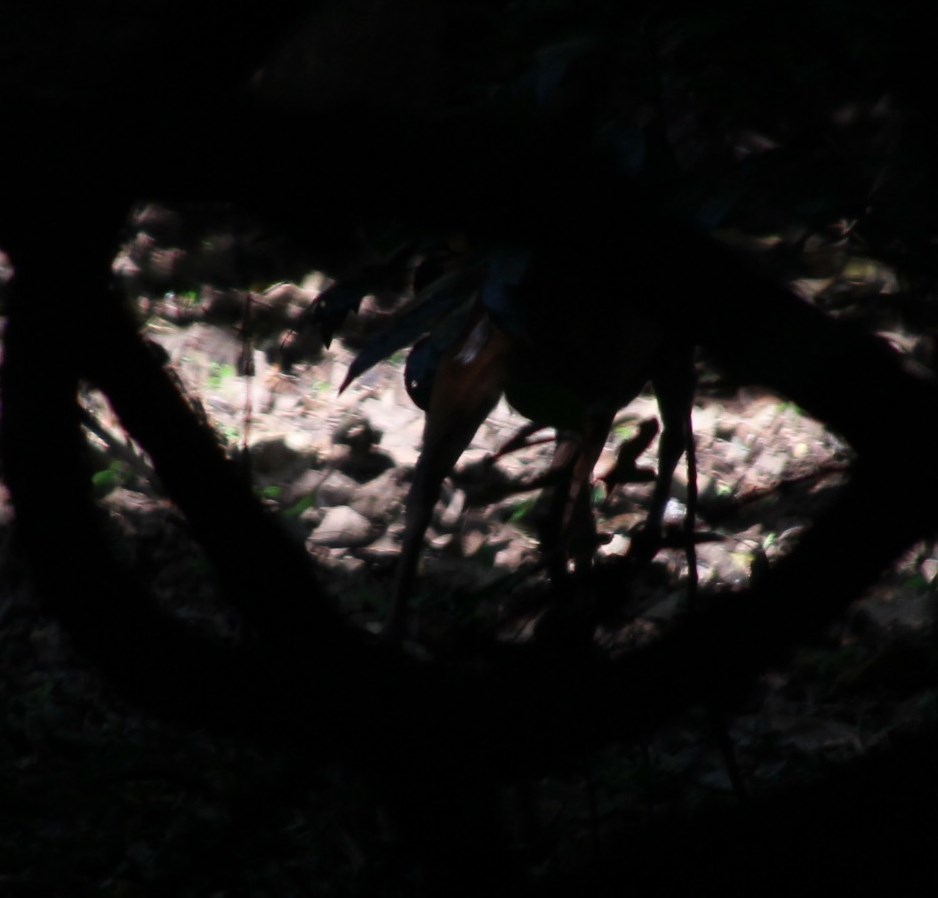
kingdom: Animalia
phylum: Chordata
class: Mammalia
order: Artiodactyla
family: Bovidae
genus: Cephalophus
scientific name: Cephalophus natalensis
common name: Red duiker
